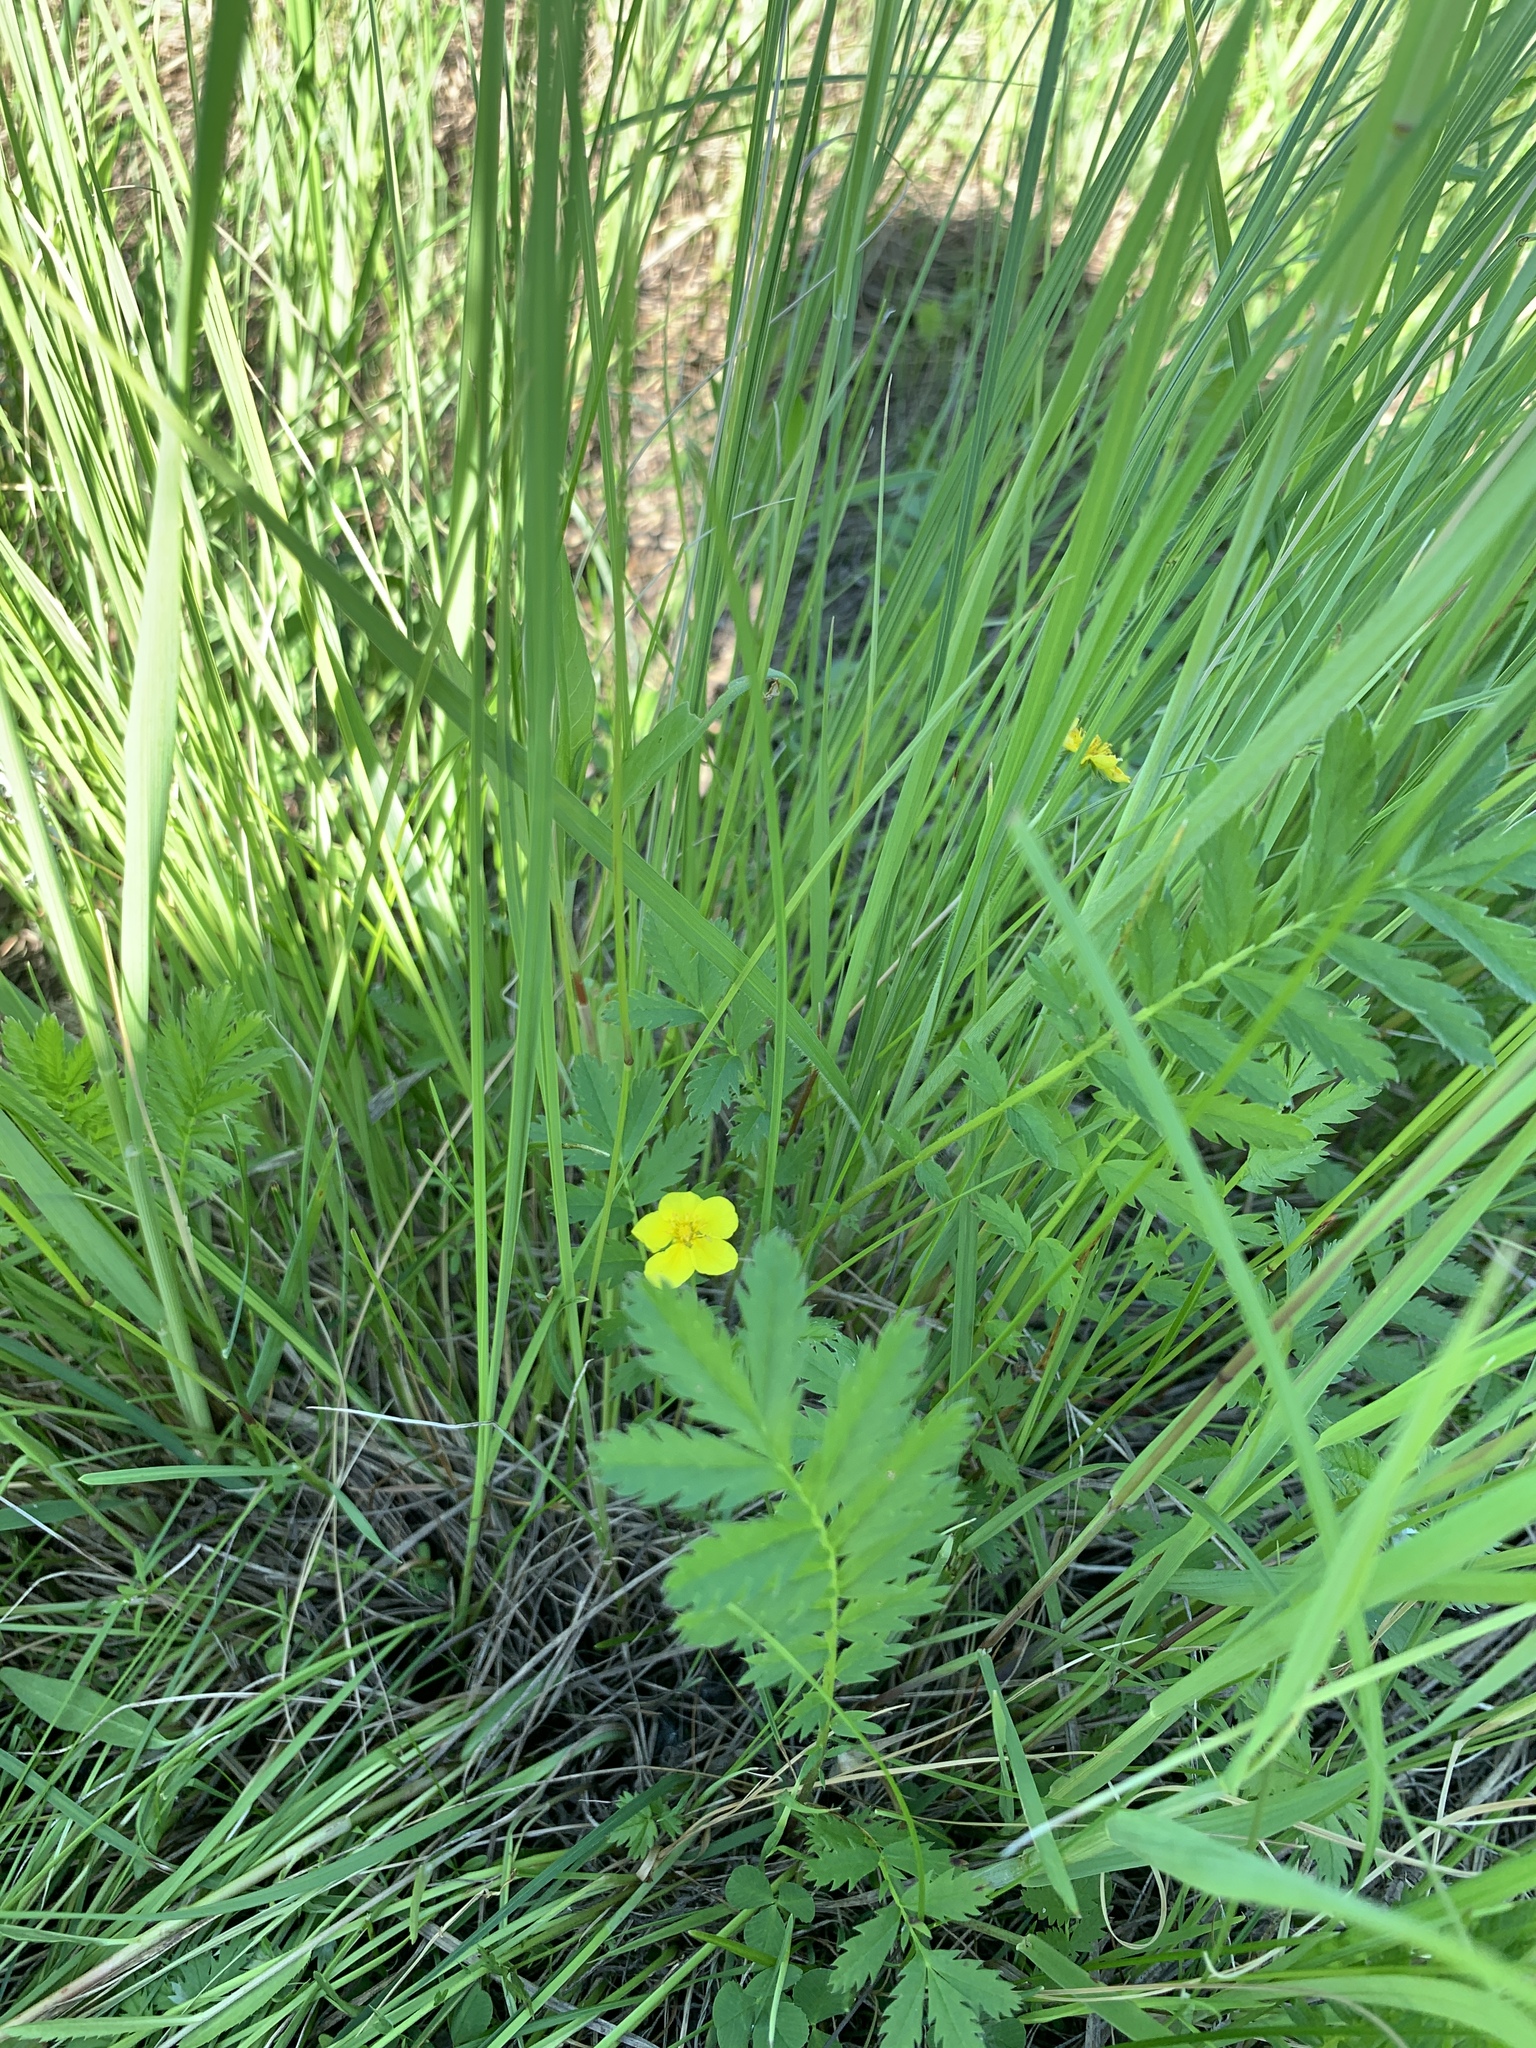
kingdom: Plantae
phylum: Tracheophyta
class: Magnoliopsida
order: Rosales
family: Rosaceae
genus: Argentina
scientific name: Argentina anserina
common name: Common silverweed
